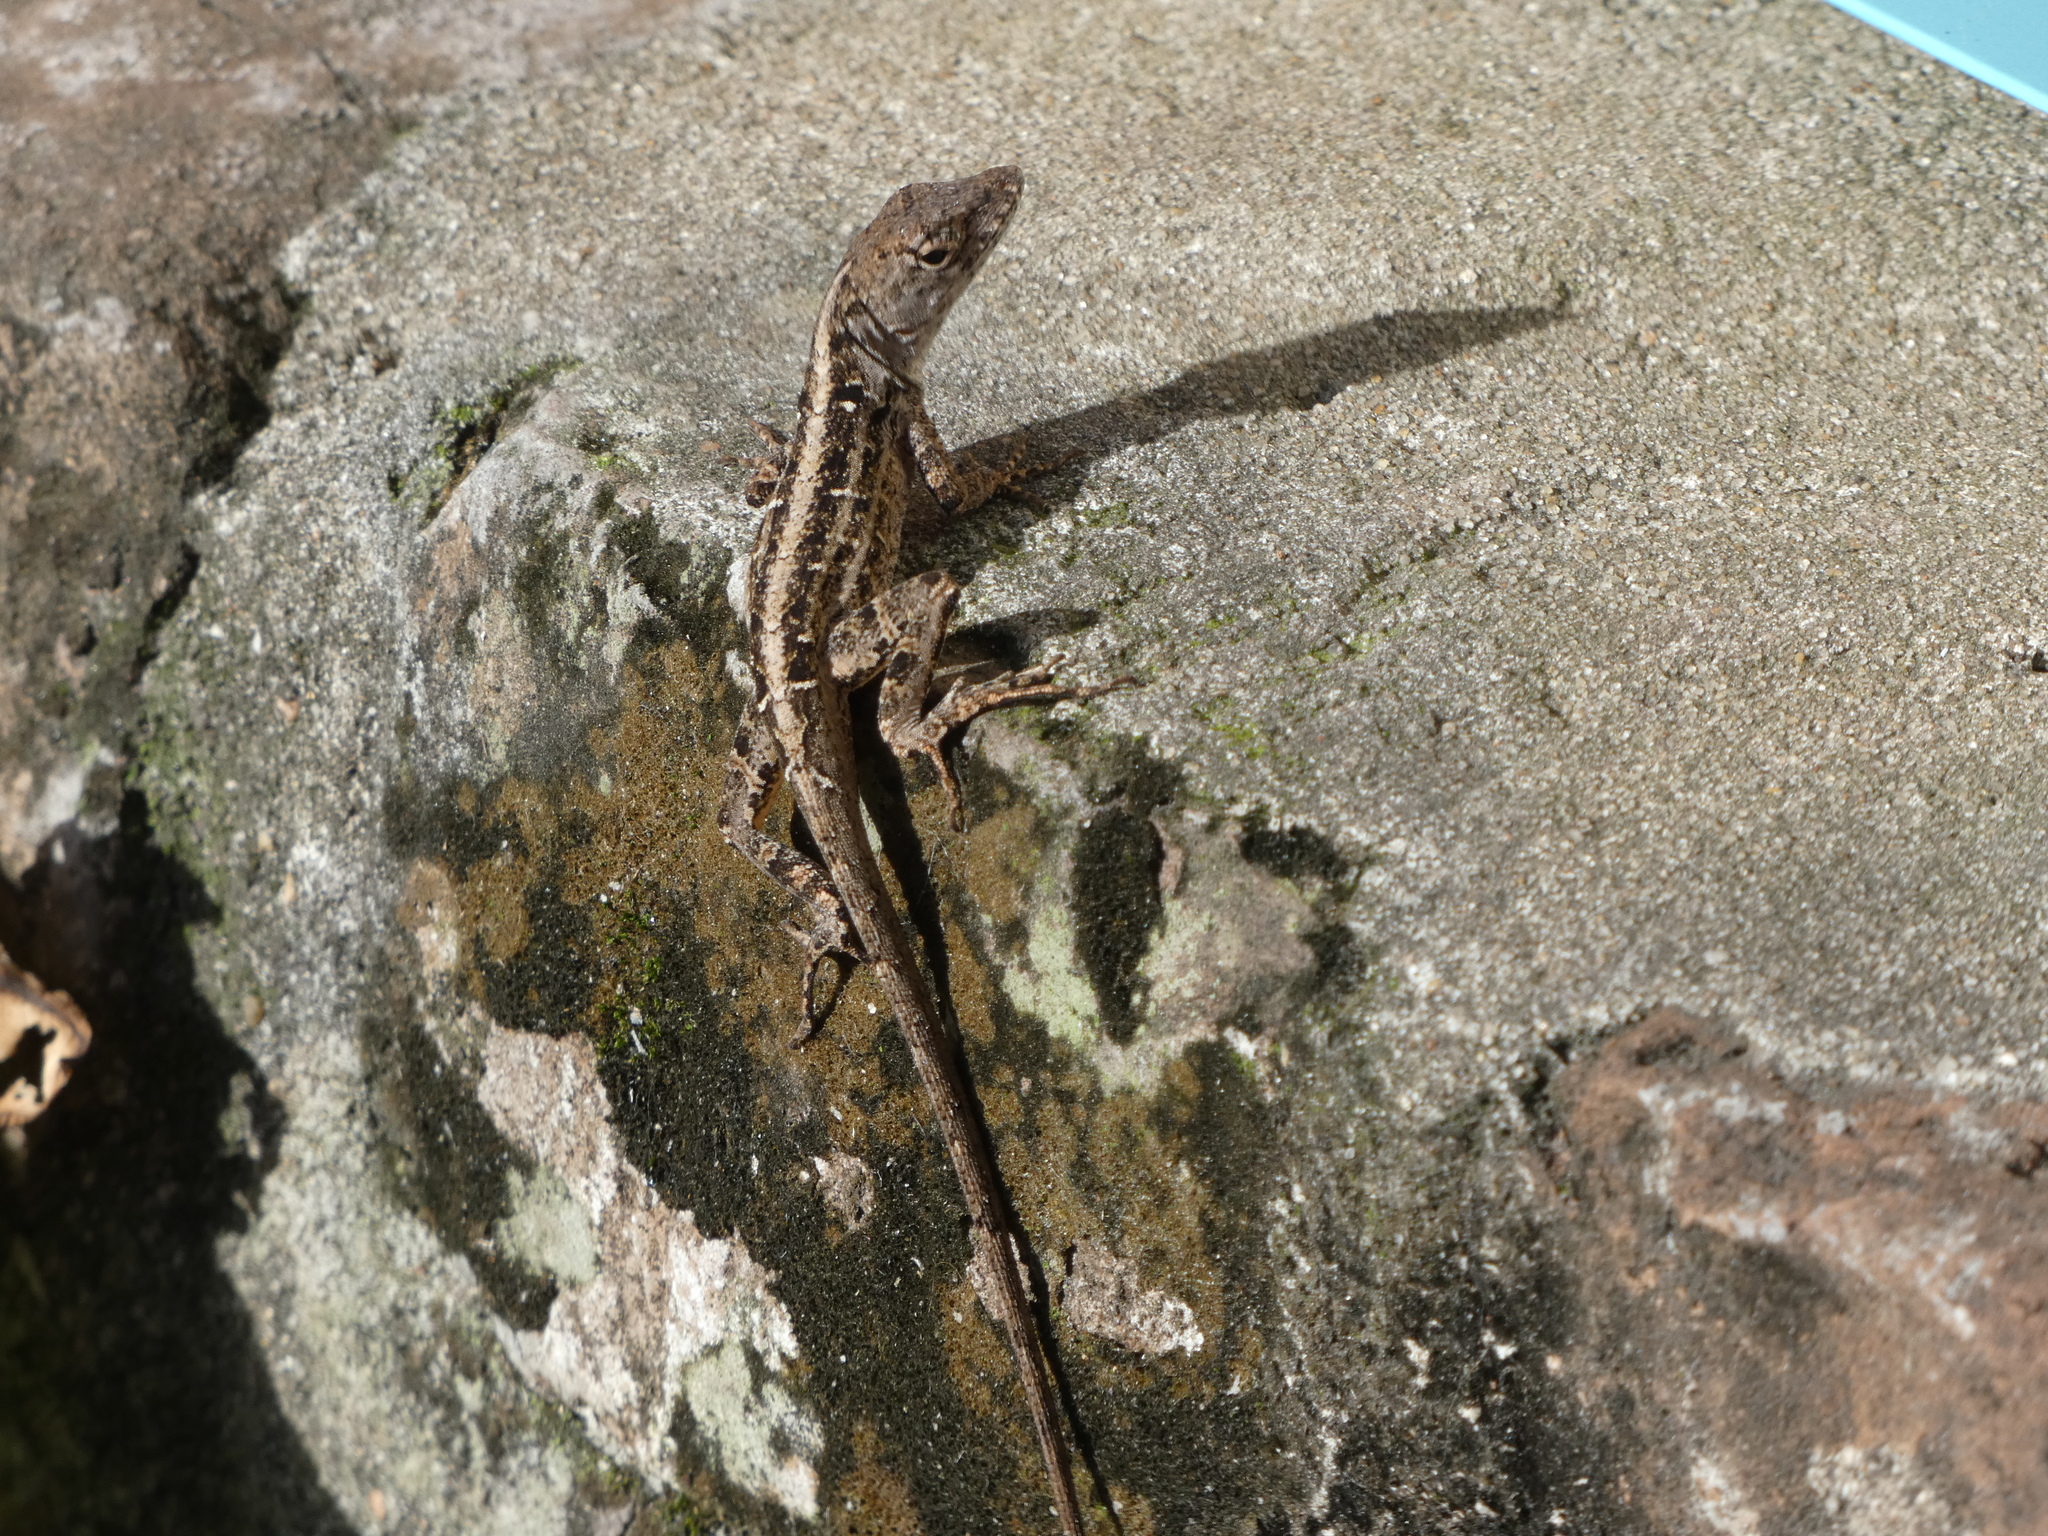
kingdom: Animalia
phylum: Chordata
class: Squamata
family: Dactyloidae
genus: Anolis
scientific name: Anolis sagrei
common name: Brown anole
